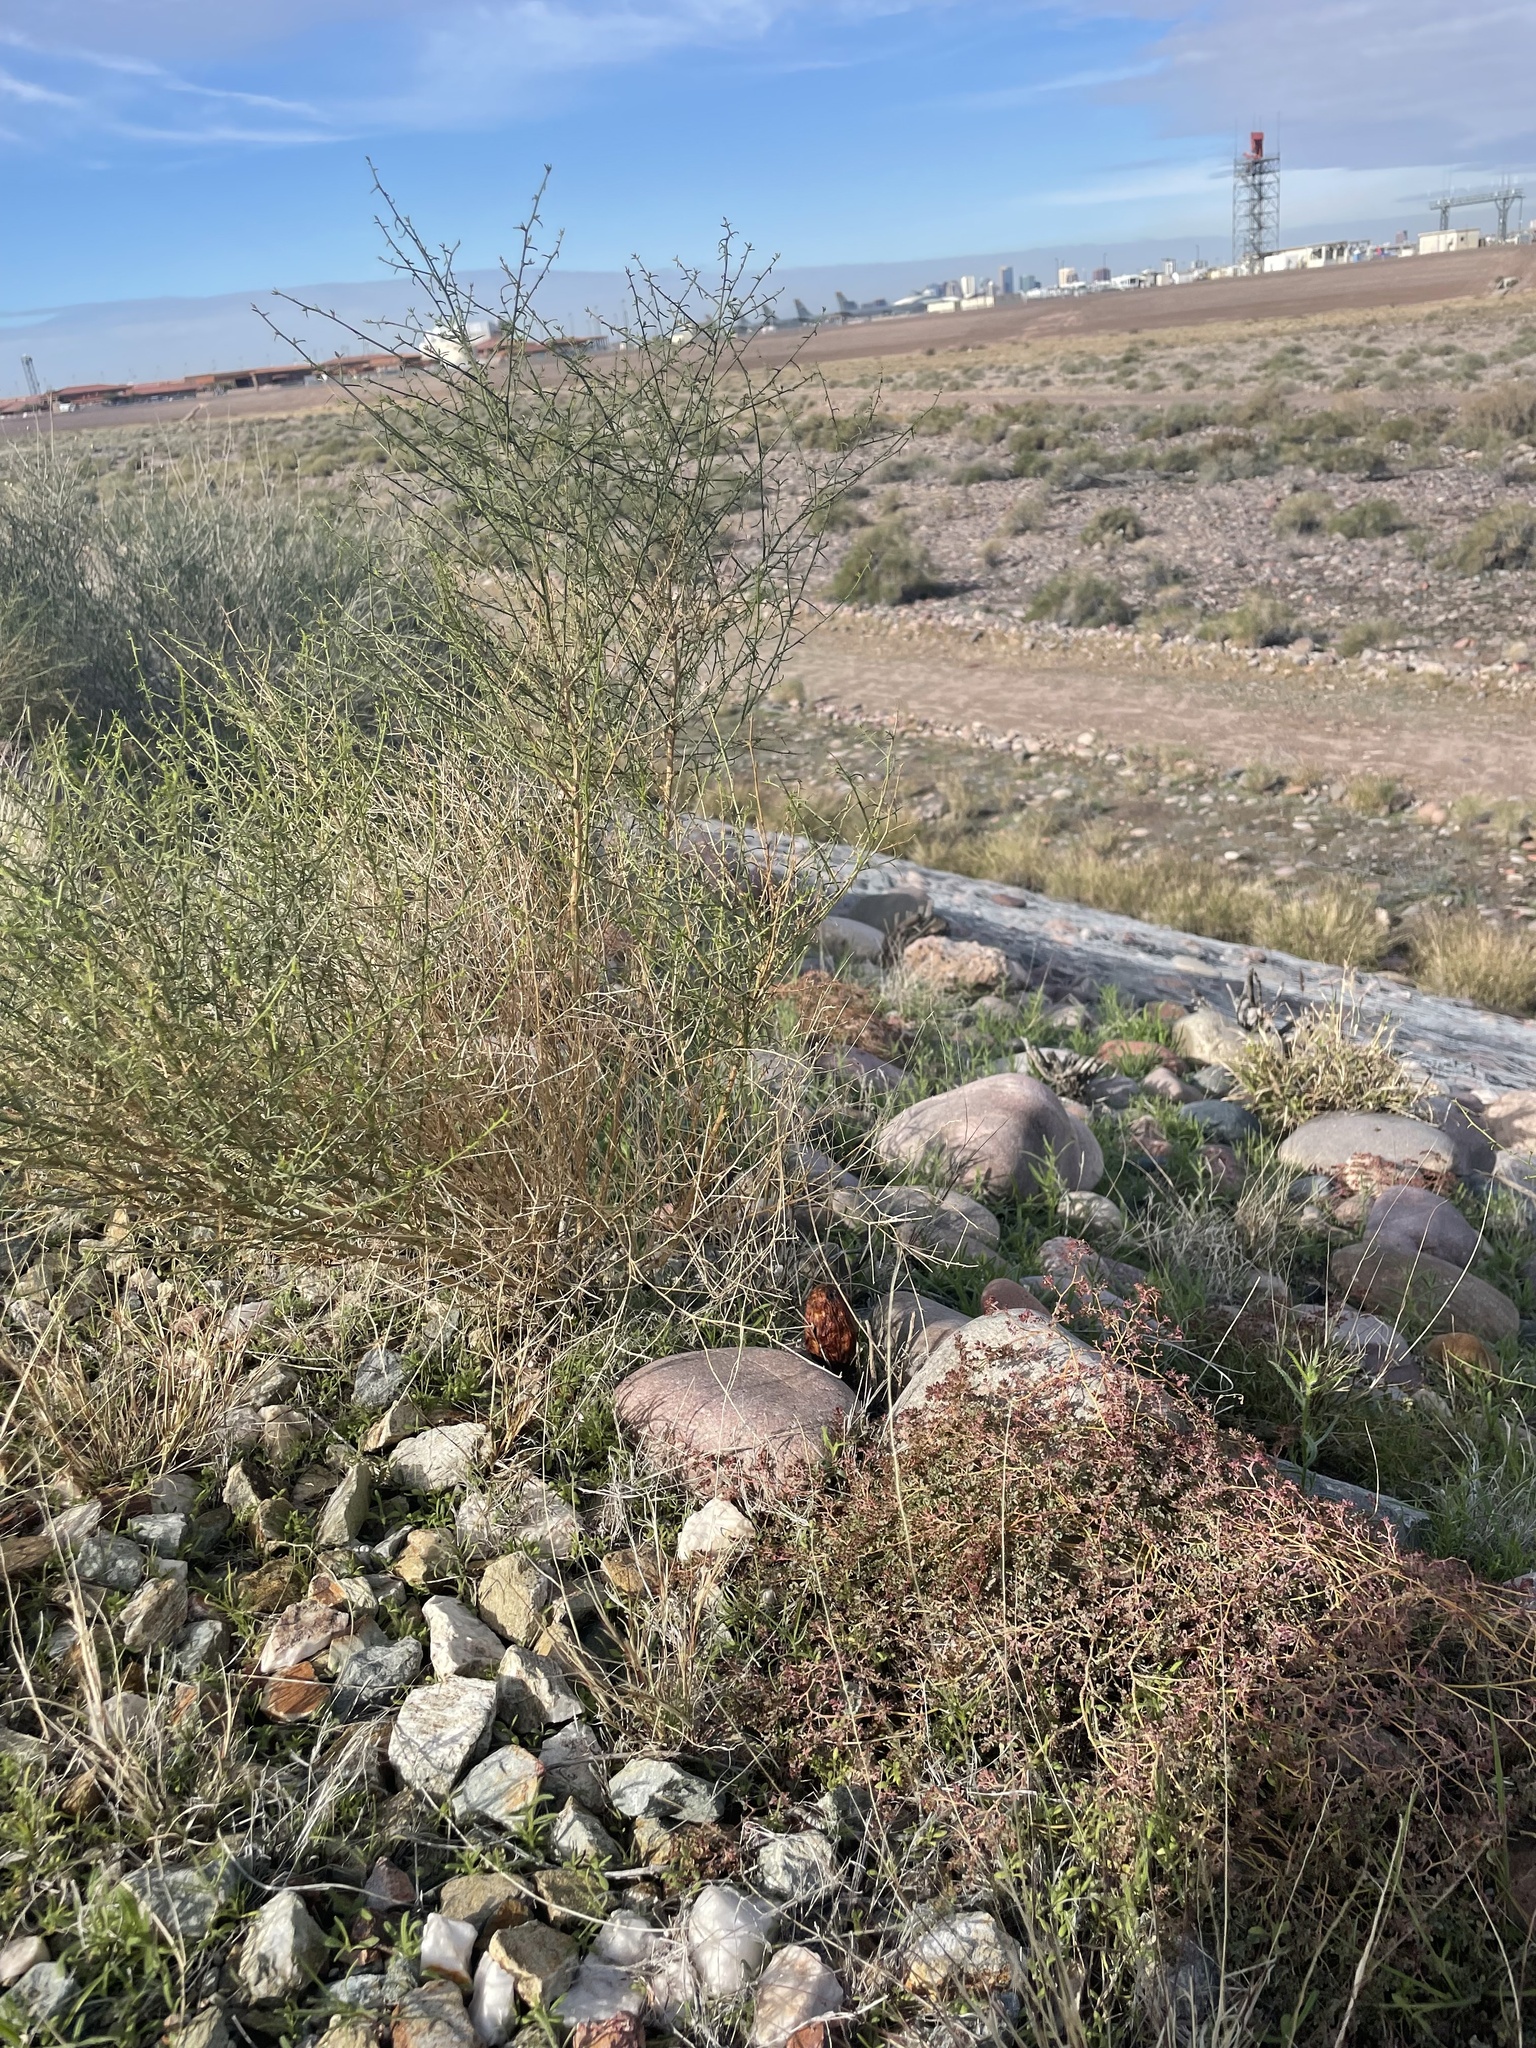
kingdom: Fungi
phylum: Basidiomycota
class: Agaricomycetes
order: Agaricales
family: Agaricaceae
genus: Podaxis
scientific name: Podaxis pistillaris
